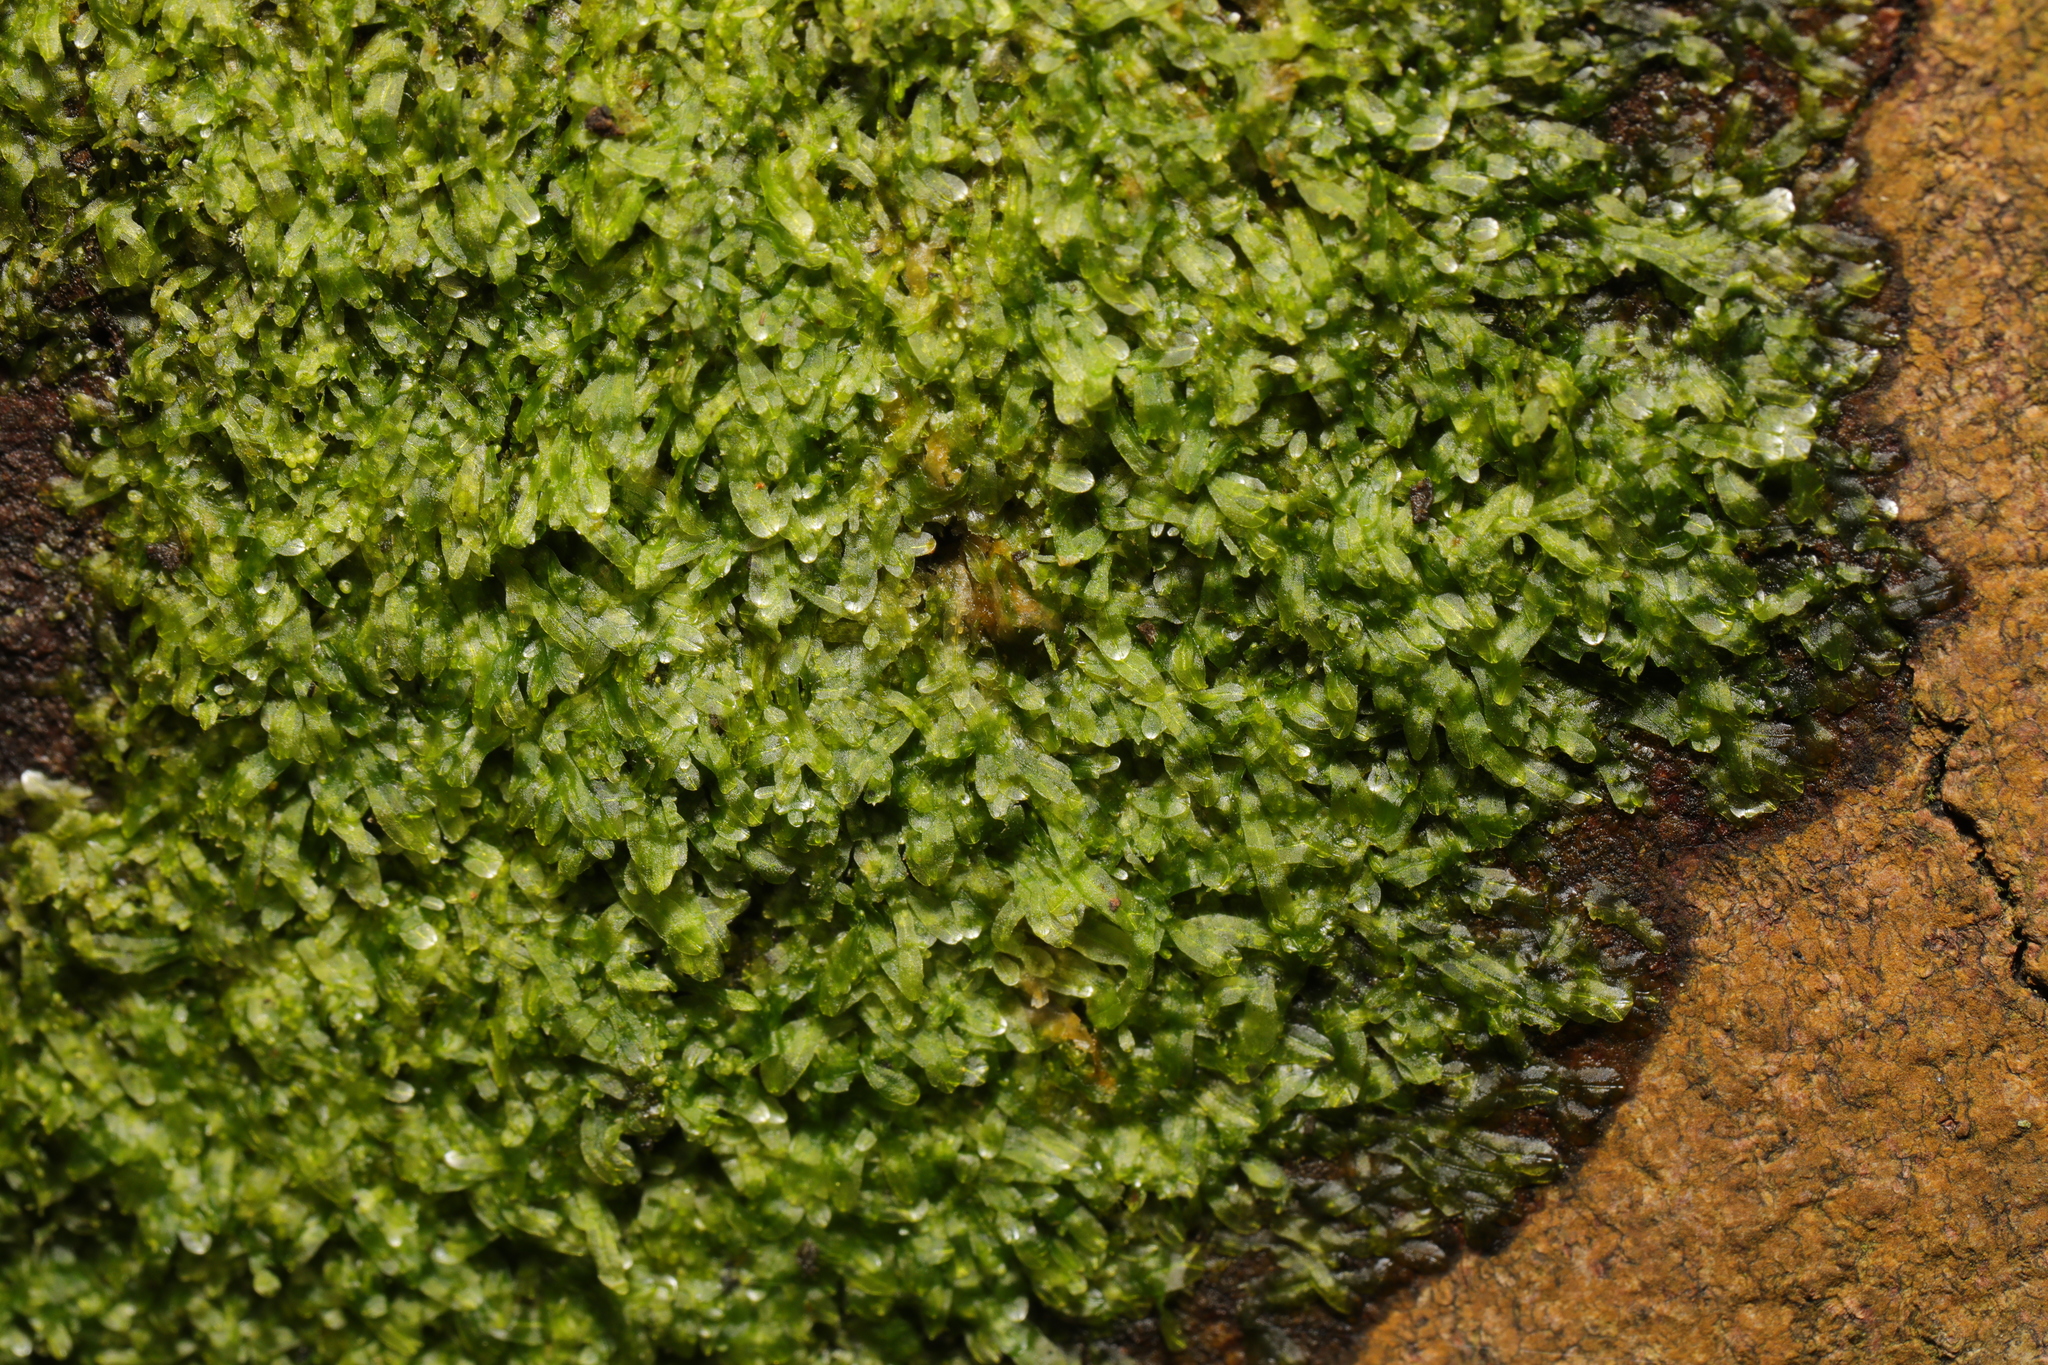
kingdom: Plantae
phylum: Marchantiophyta
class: Jungermanniopsida
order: Metzgeriales
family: Metzgeriaceae
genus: Metzgeria
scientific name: Metzgeria furcata
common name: Forked veilwort
